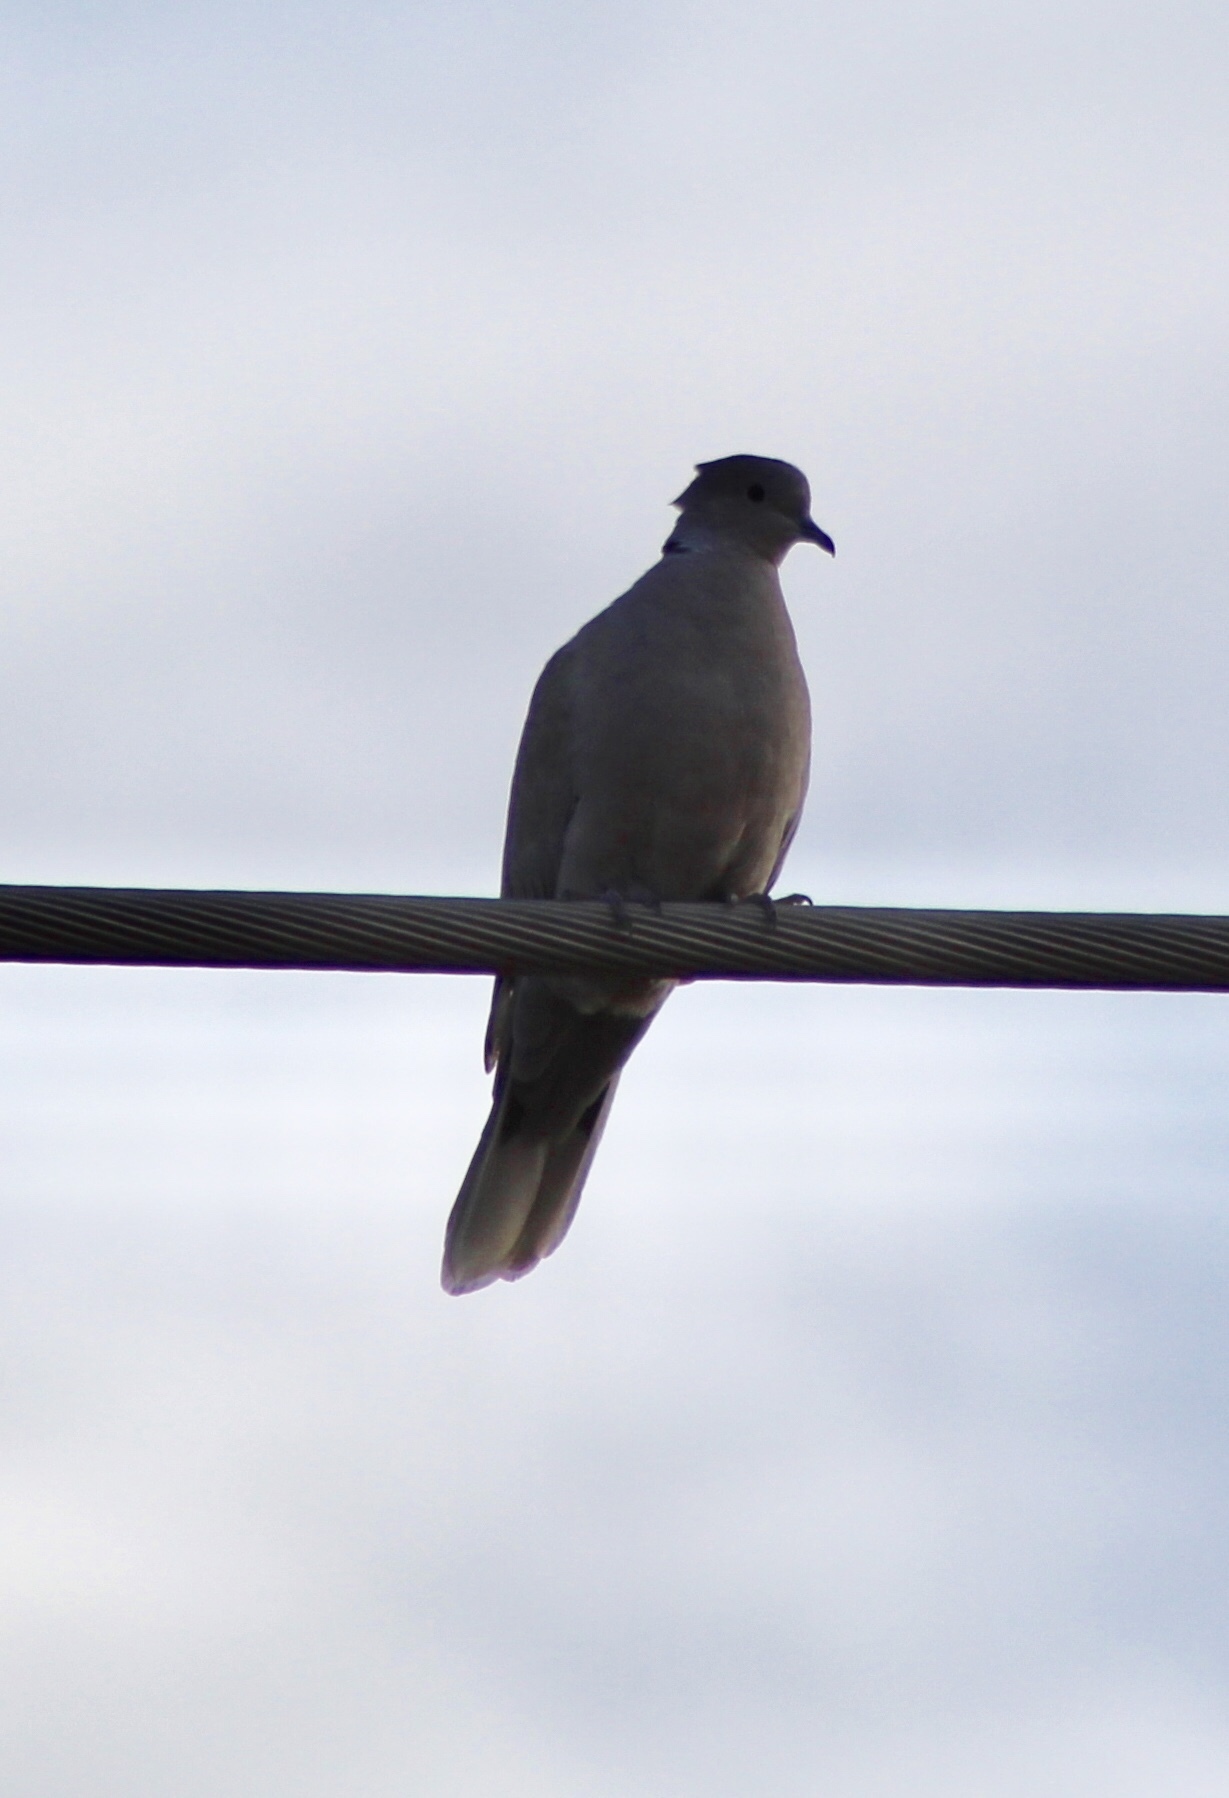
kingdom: Animalia
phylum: Chordata
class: Aves
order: Columbiformes
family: Columbidae
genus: Streptopelia
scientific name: Streptopelia decaocto
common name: Eurasian collared dove
